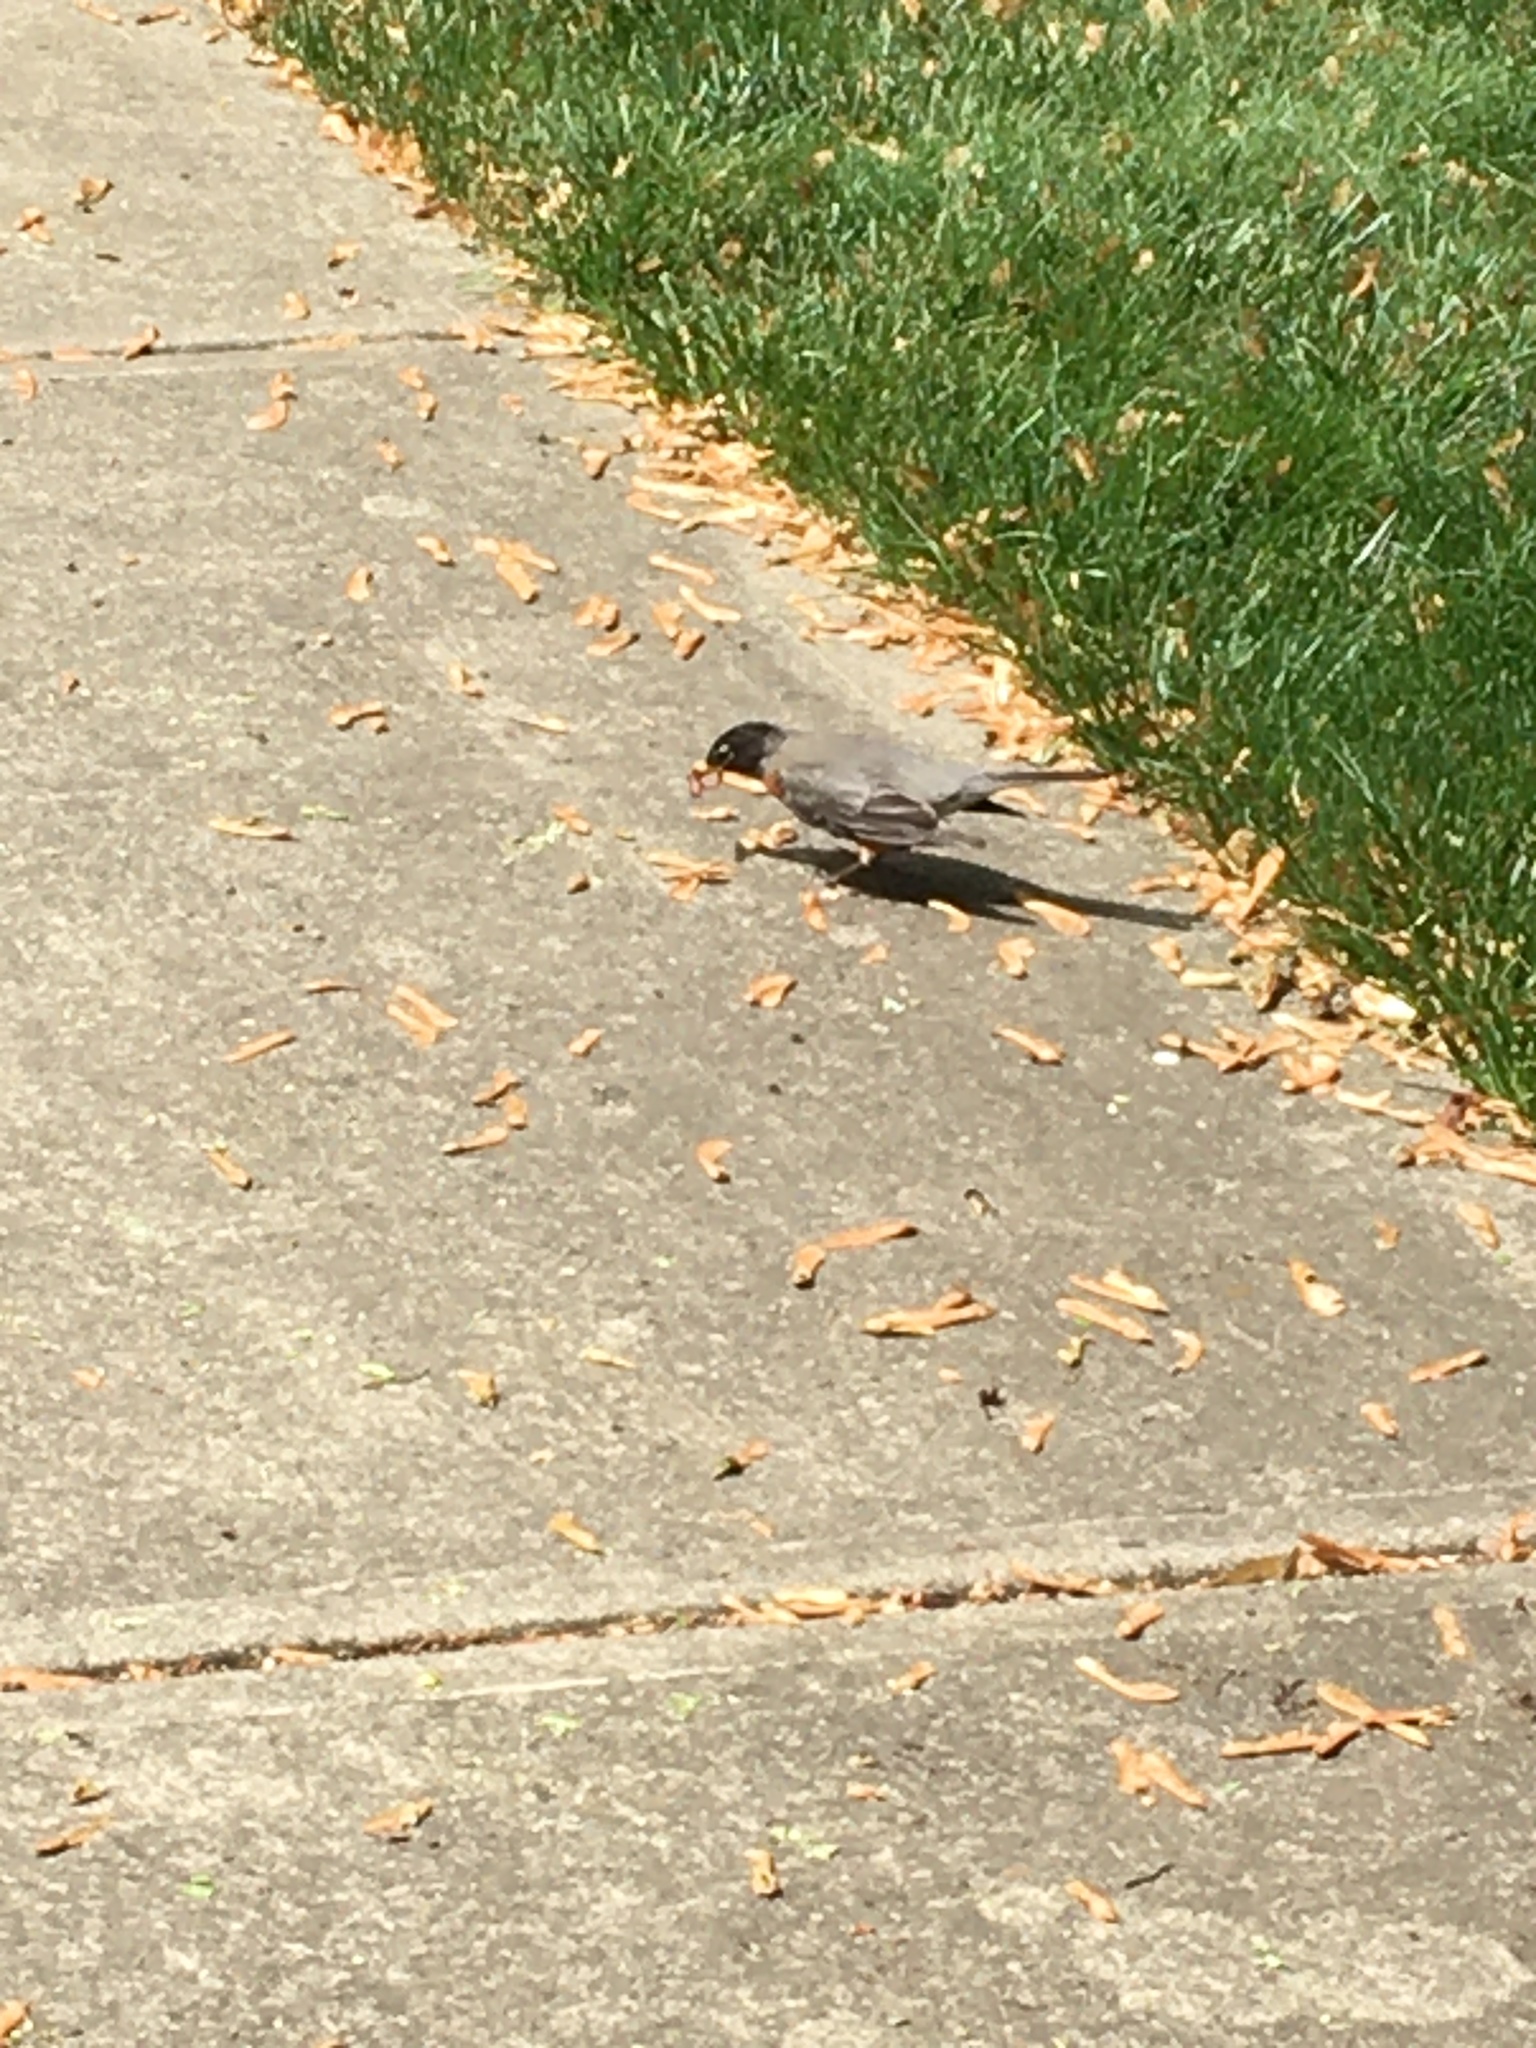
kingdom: Animalia
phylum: Chordata
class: Aves
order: Passeriformes
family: Turdidae
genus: Turdus
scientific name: Turdus migratorius
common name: American robin
